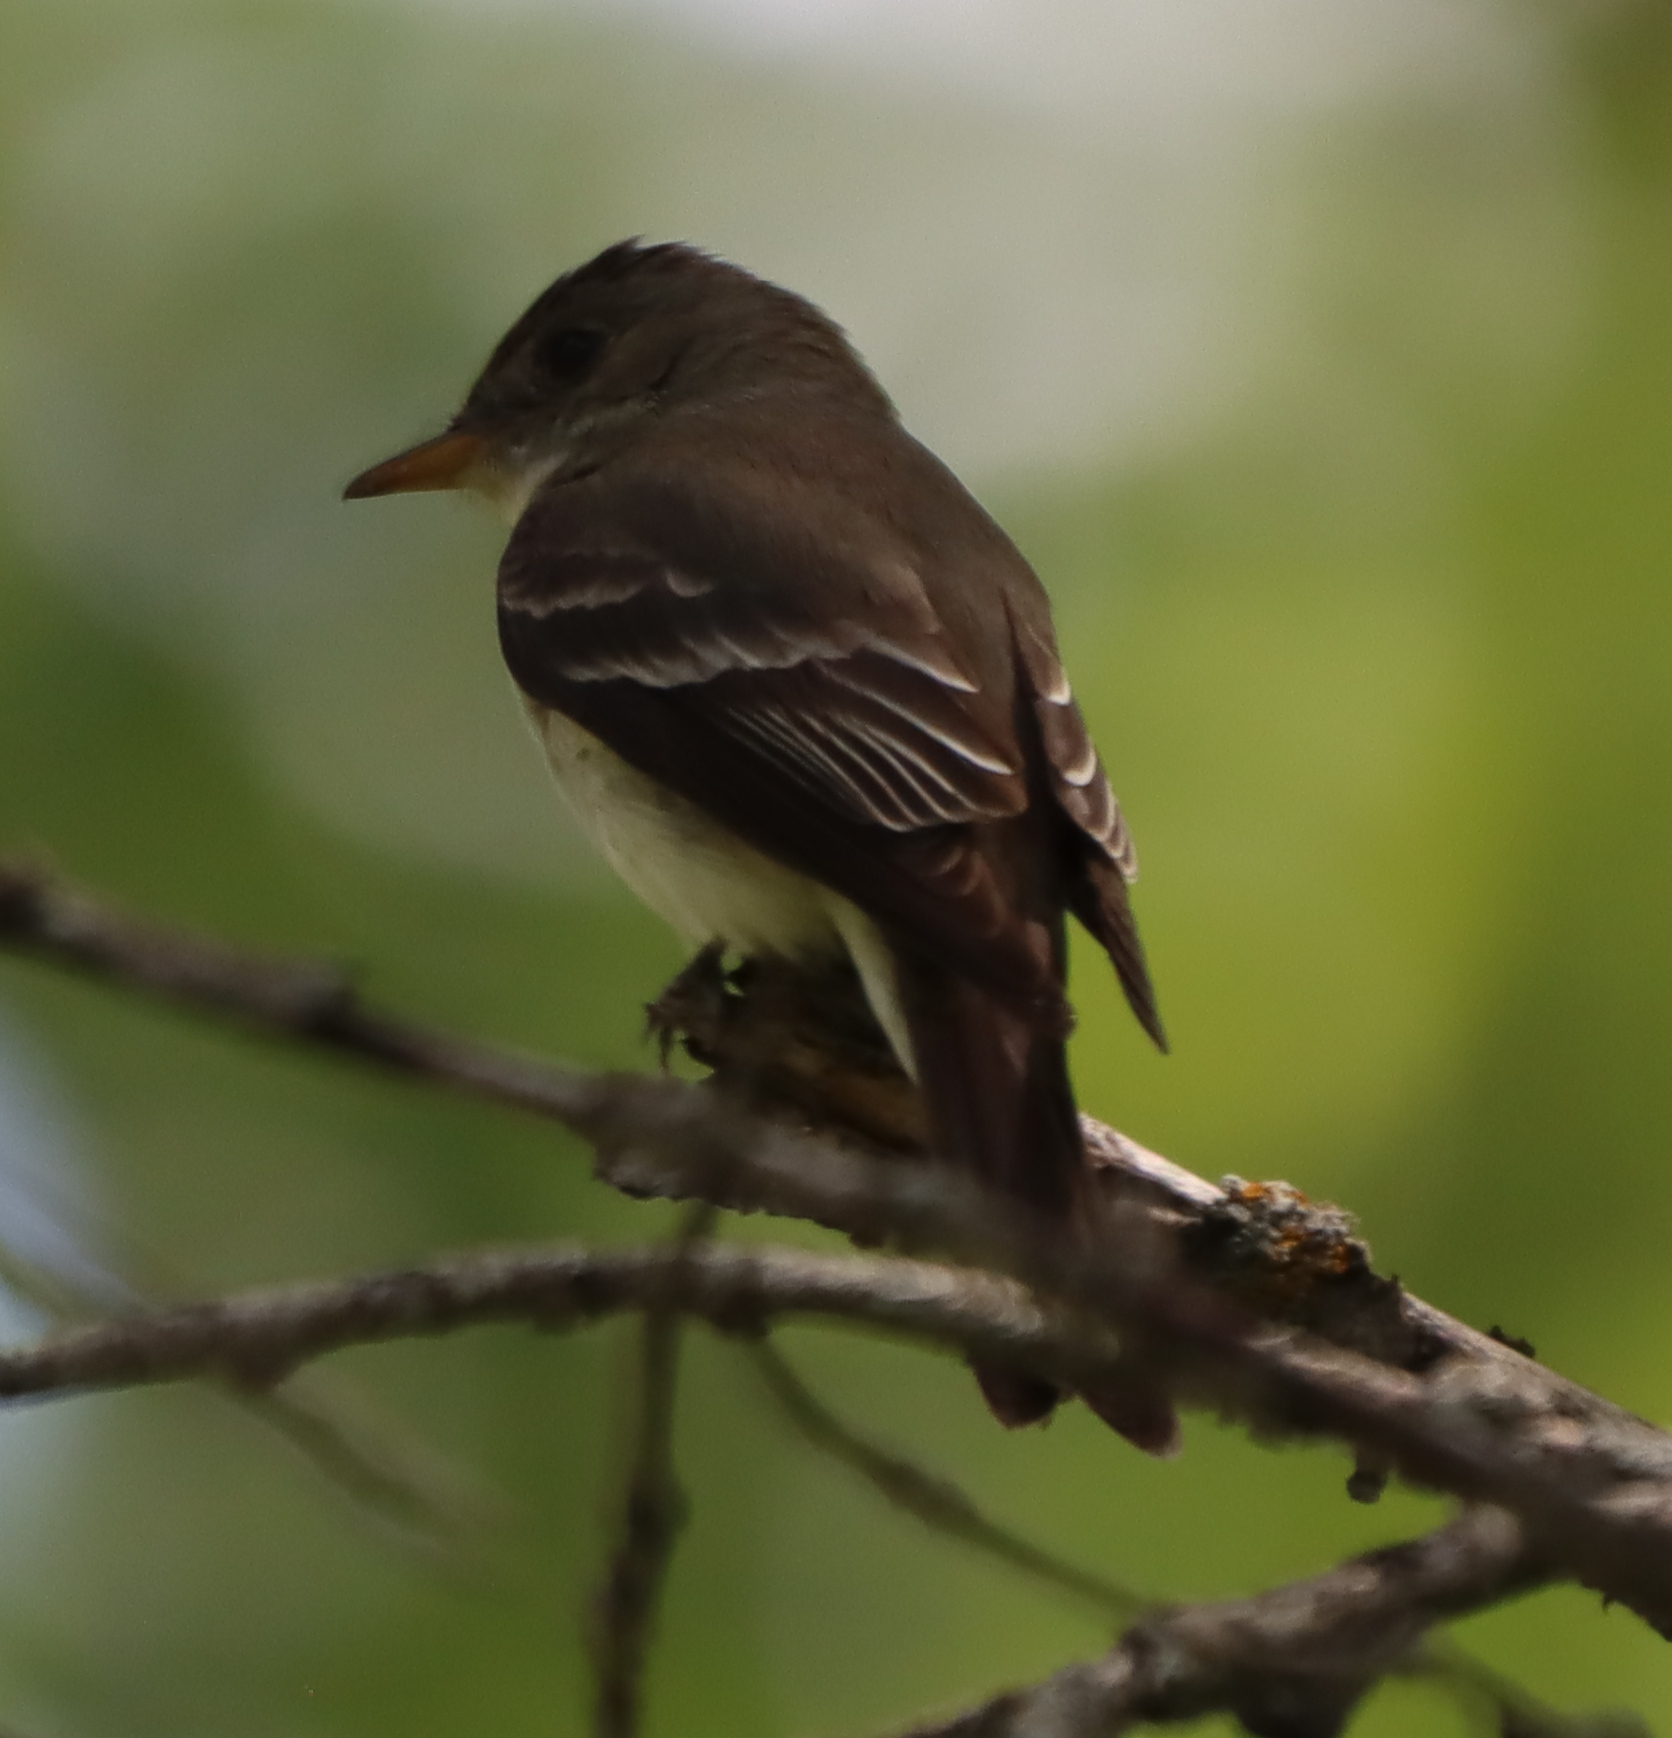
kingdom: Animalia
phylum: Chordata
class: Aves
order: Passeriformes
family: Tyrannidae
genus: Contopus
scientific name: Contopus virens
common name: Eastern wood-pewee
